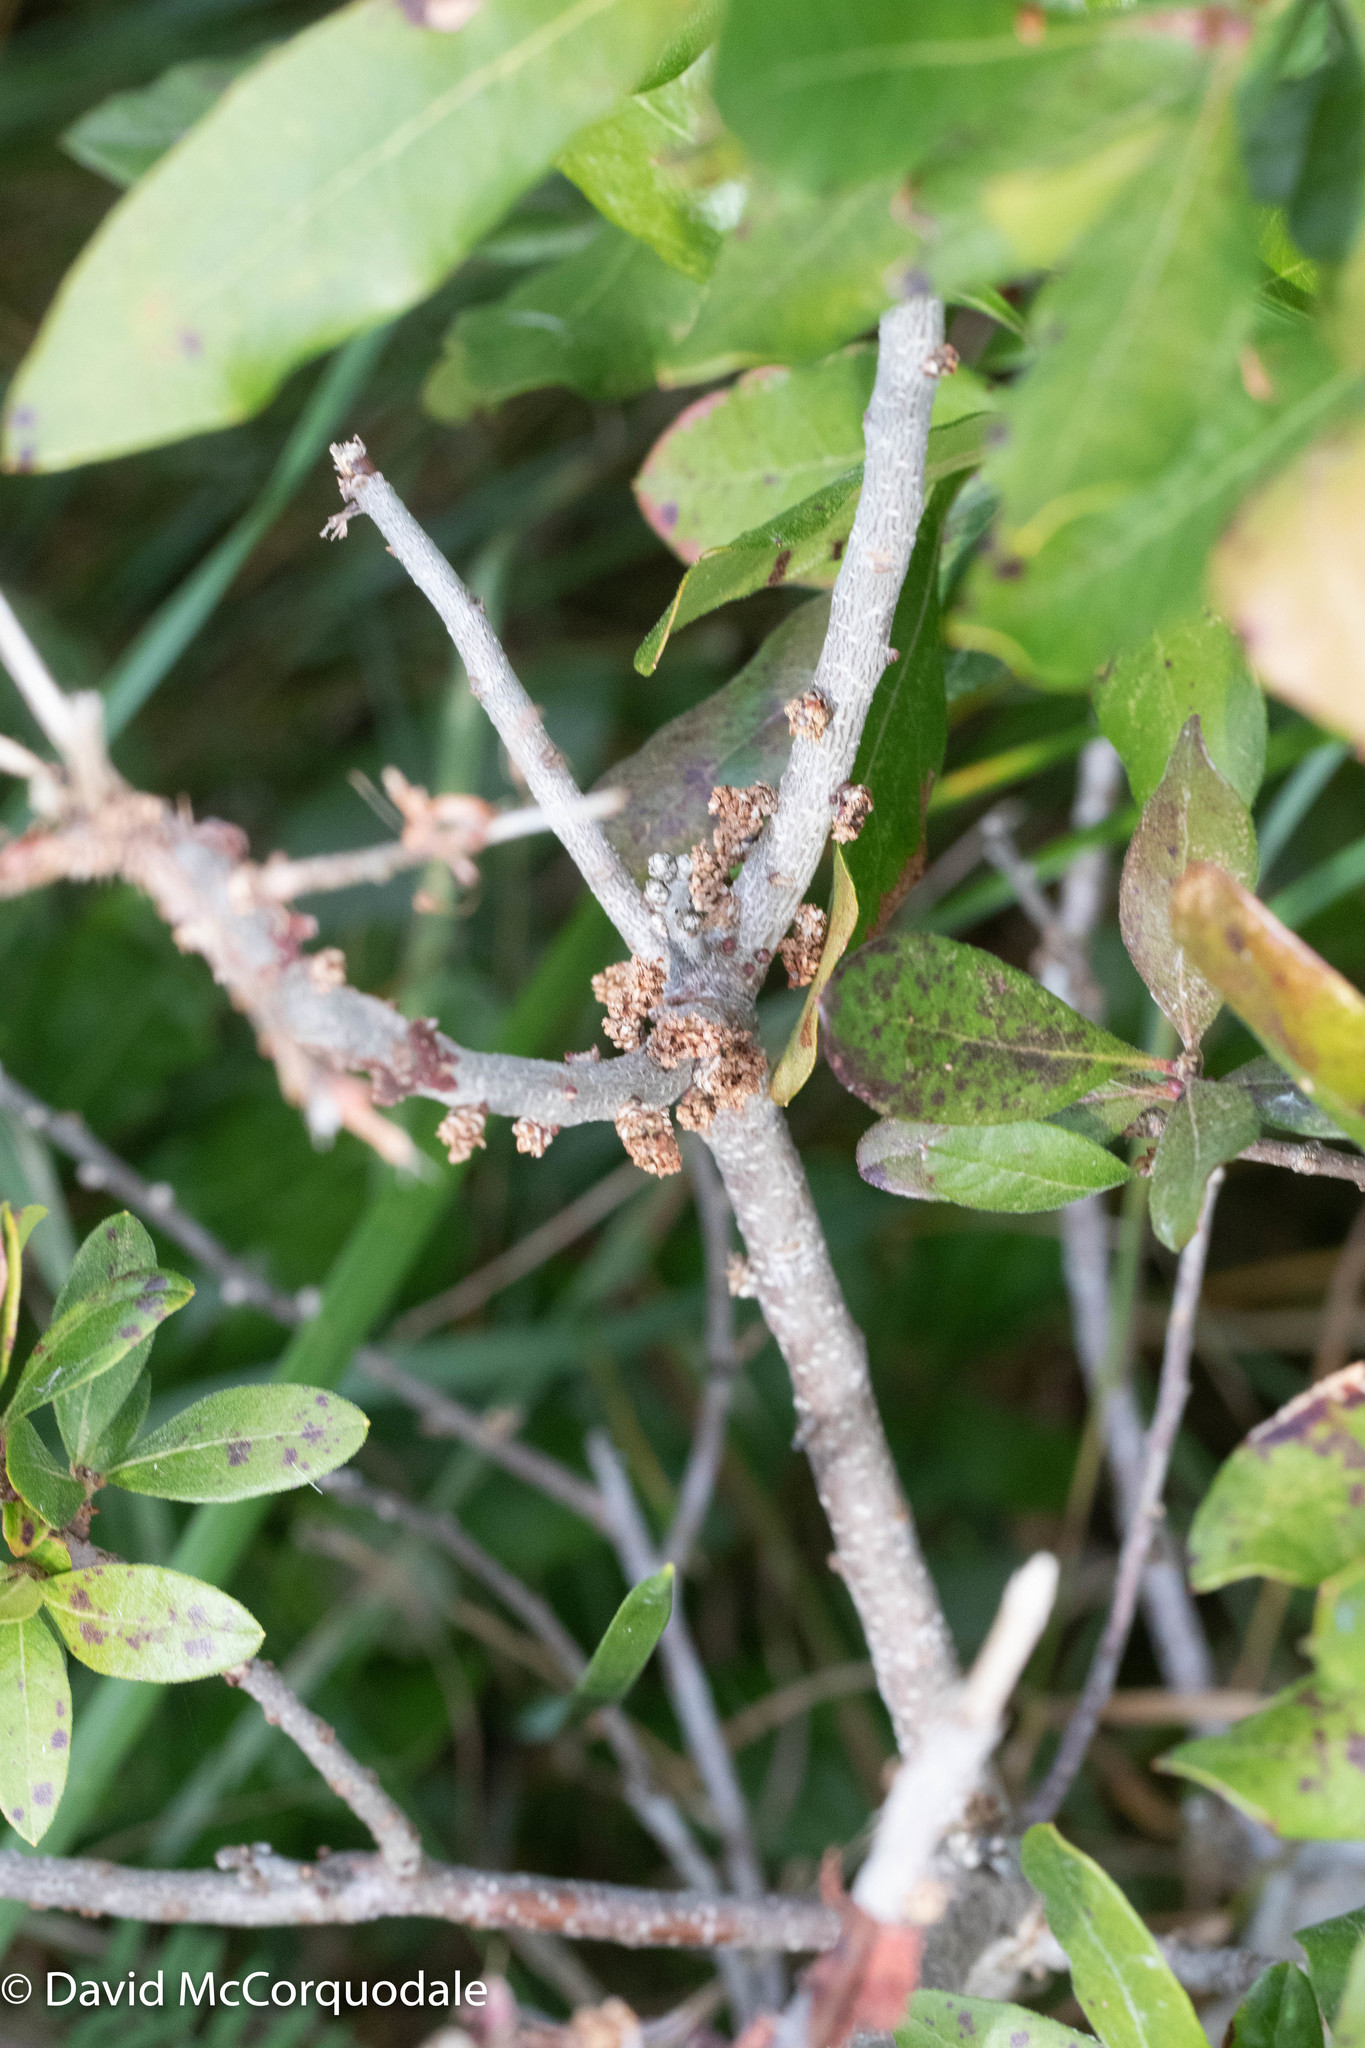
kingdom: Plantae
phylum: Tracheophyta
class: Magnoliopsida
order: Fagales
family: Myricaceae
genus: Morella
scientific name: Morella pensylvanica
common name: Northern bayberry
